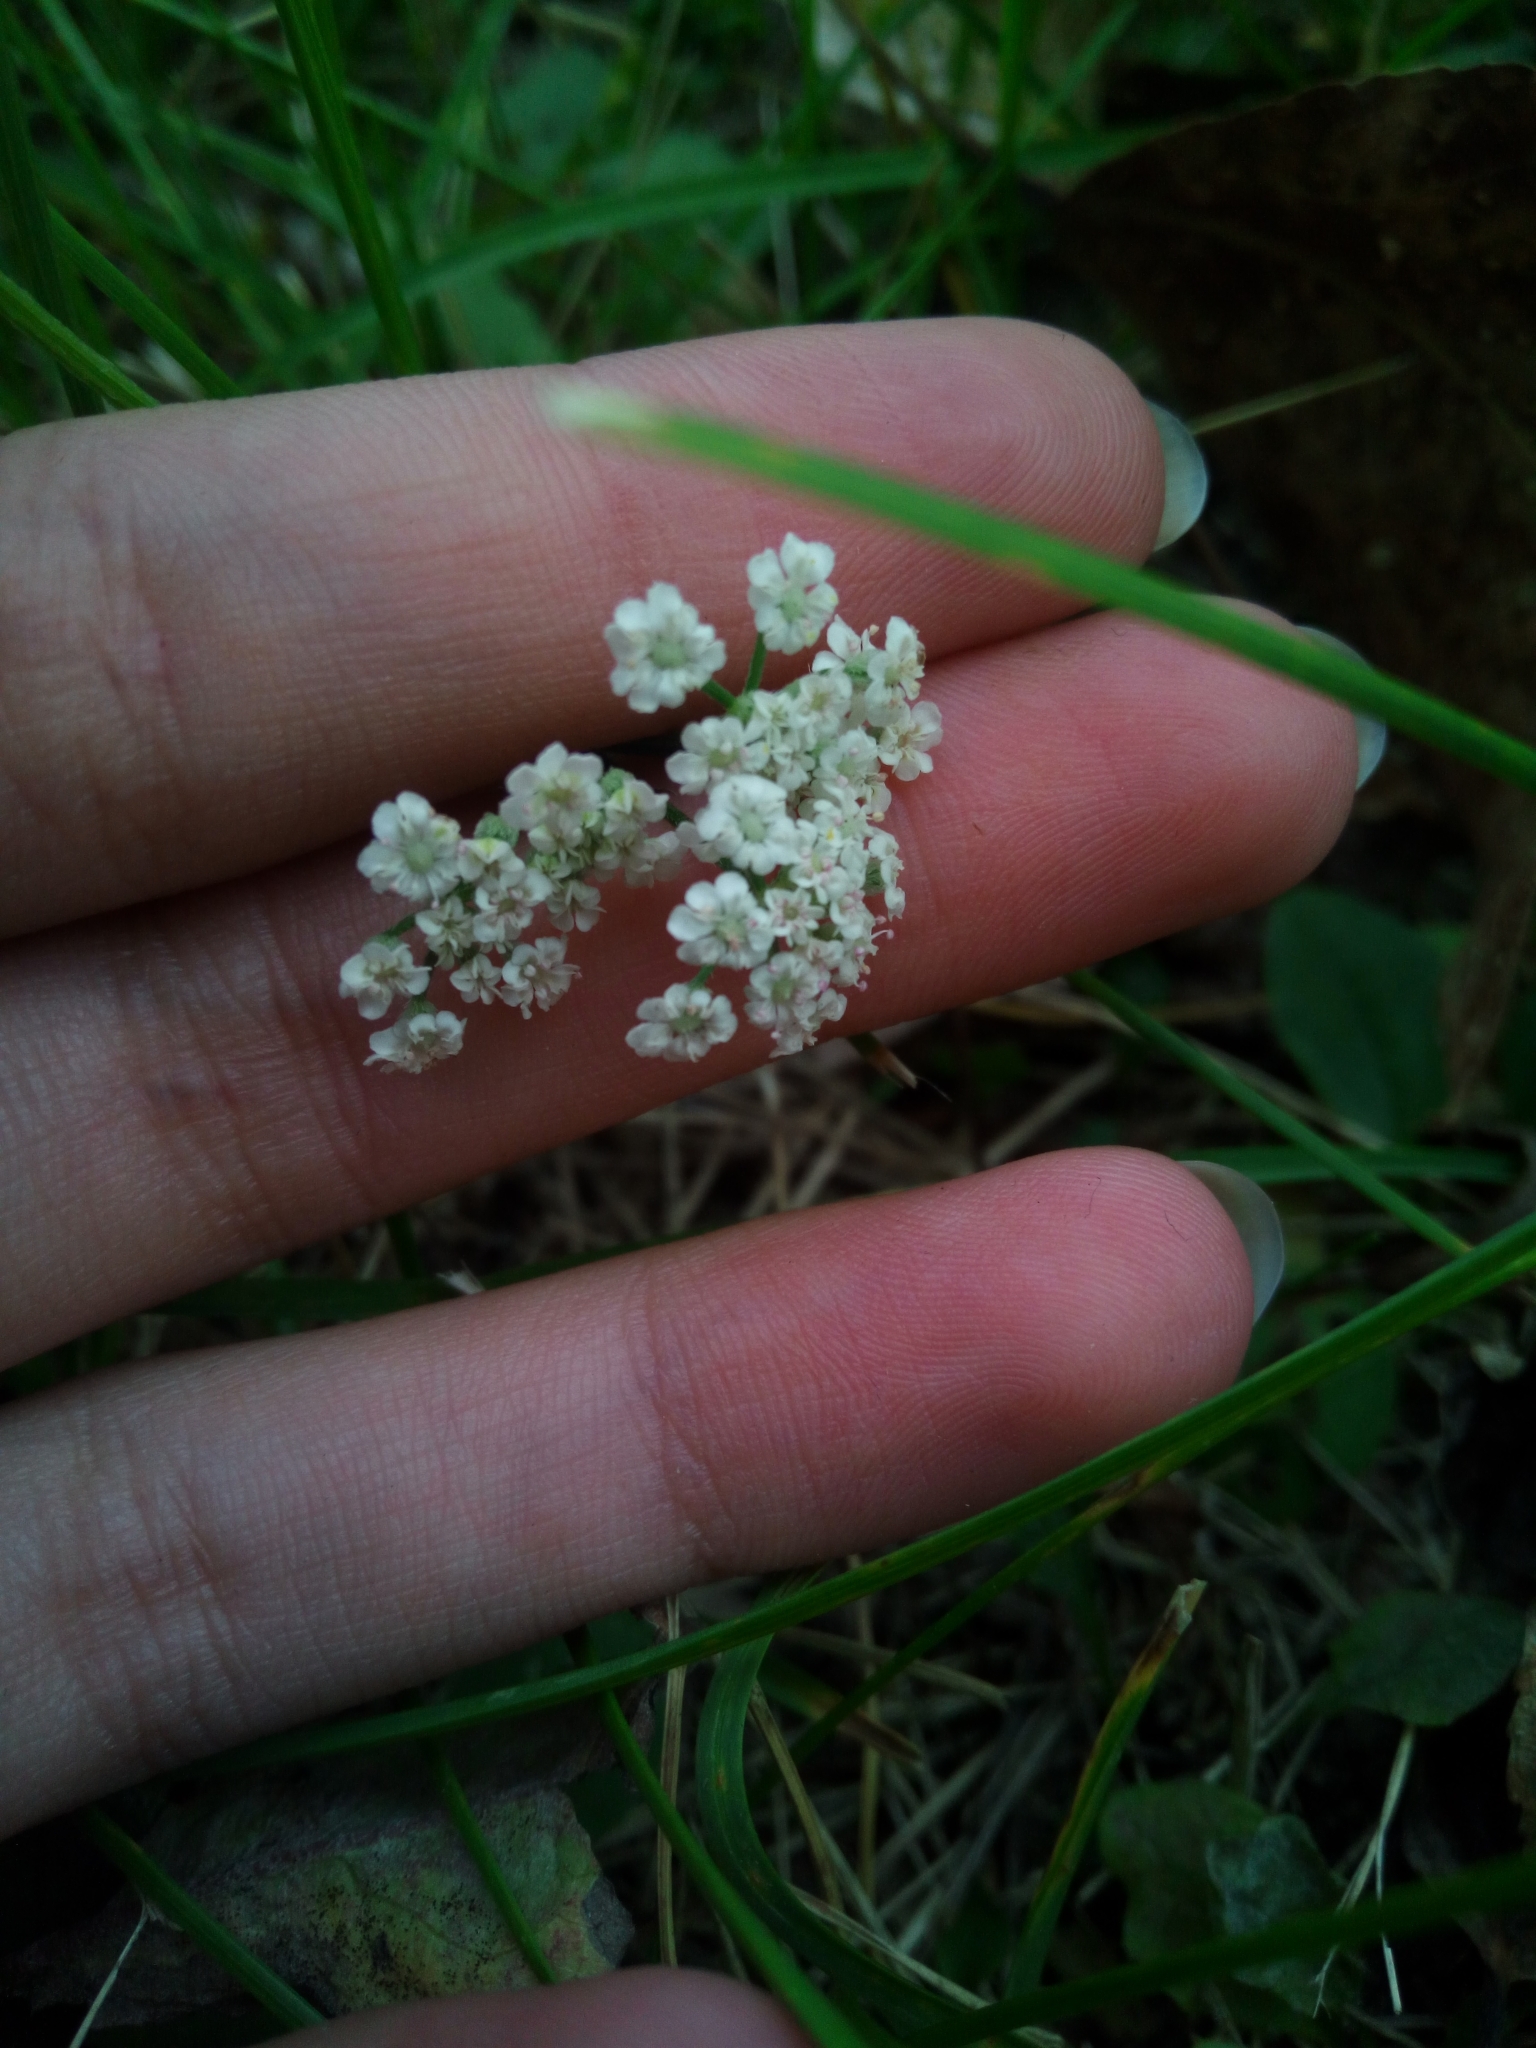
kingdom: Plantae
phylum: Tracheophyta
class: Magnoliopsida
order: Apiales
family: Apiaceae
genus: Torilis
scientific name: Torilis japonica
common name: Upright hedge-parsley
